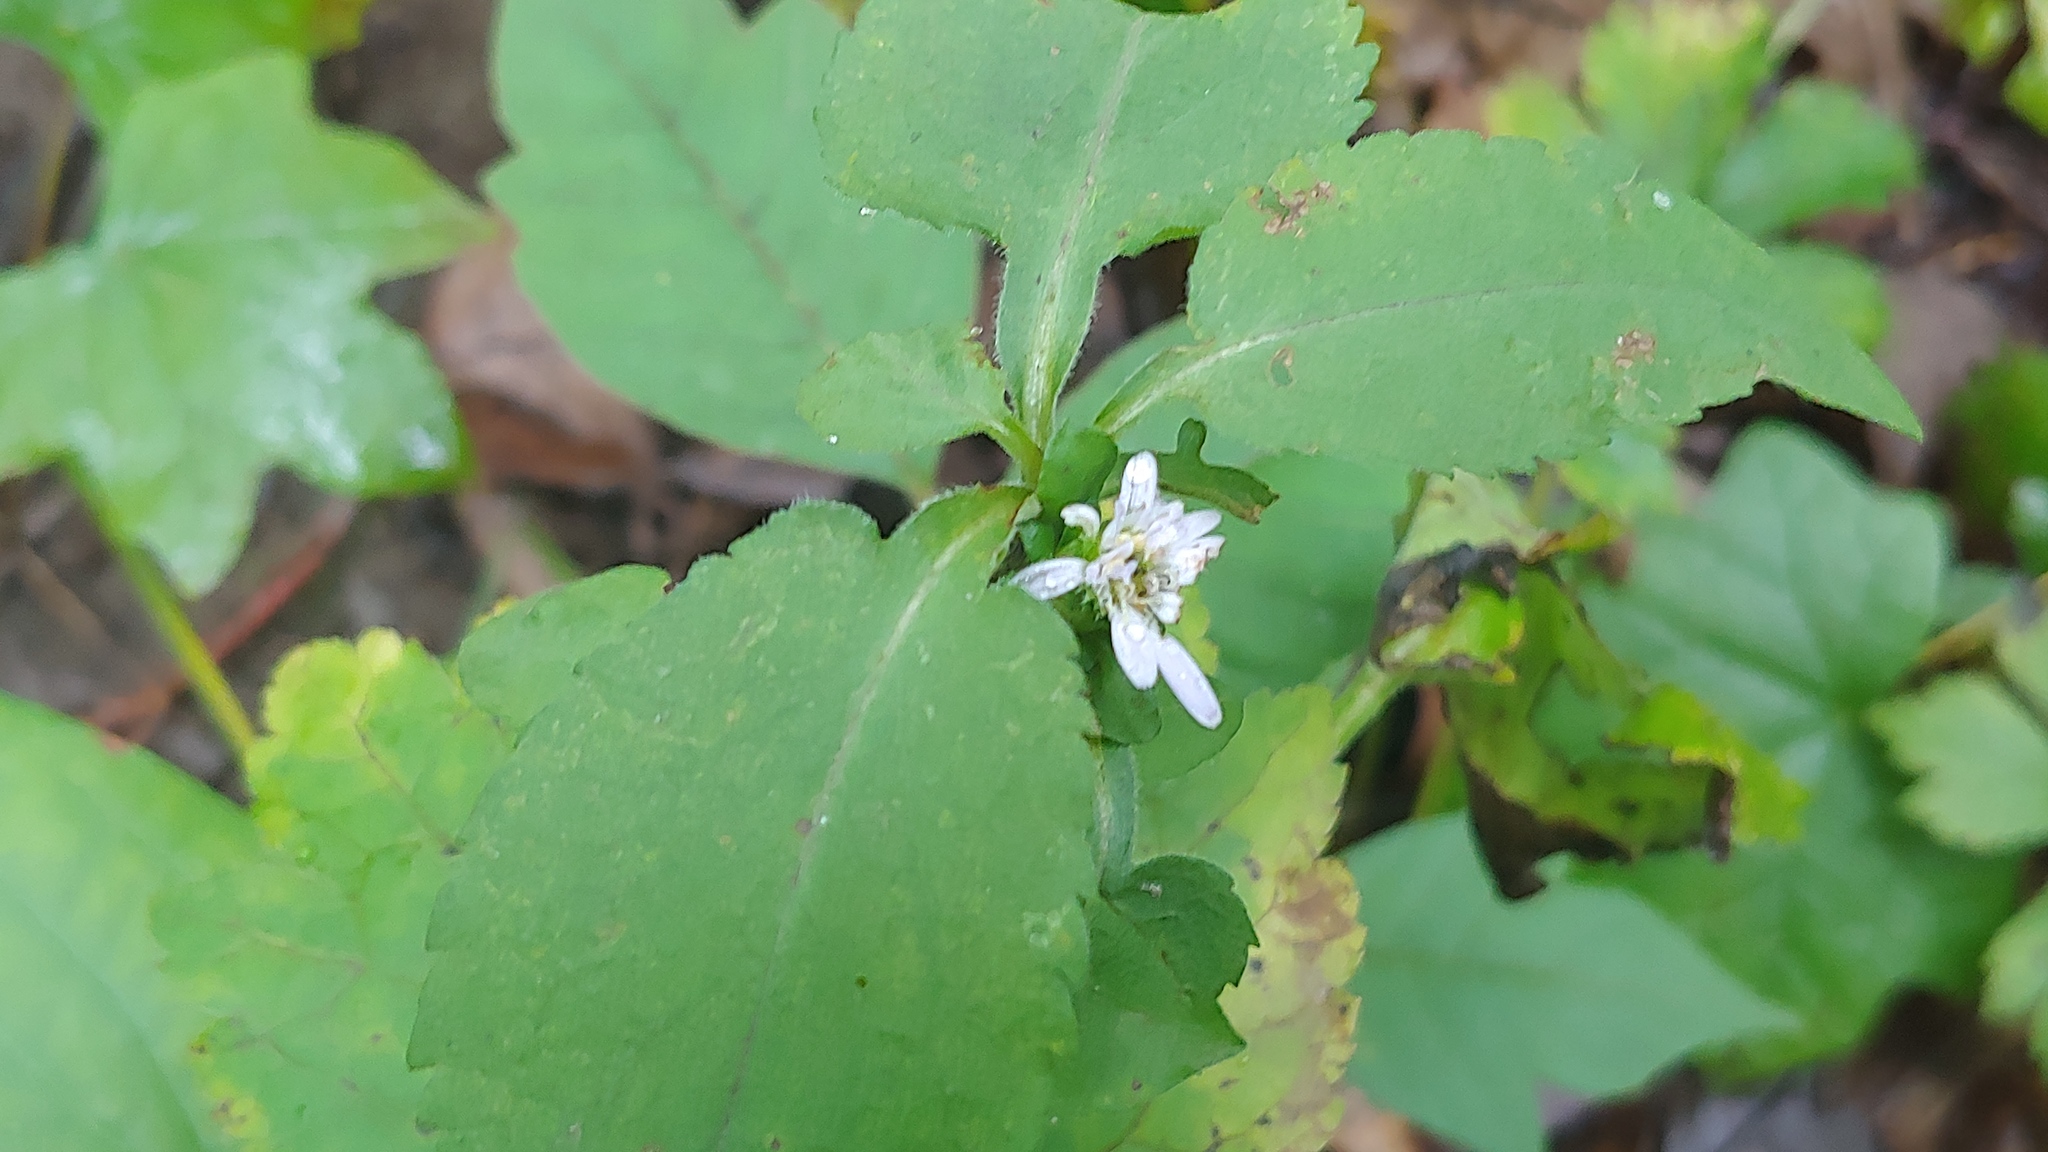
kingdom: Plantae
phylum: Tracheophyta
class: Magnoliopsida
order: Asterales
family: Asteraceae
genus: Symphyotrichum
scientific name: Symphyotrichum urophyllum
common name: Arrow-leaved aster
